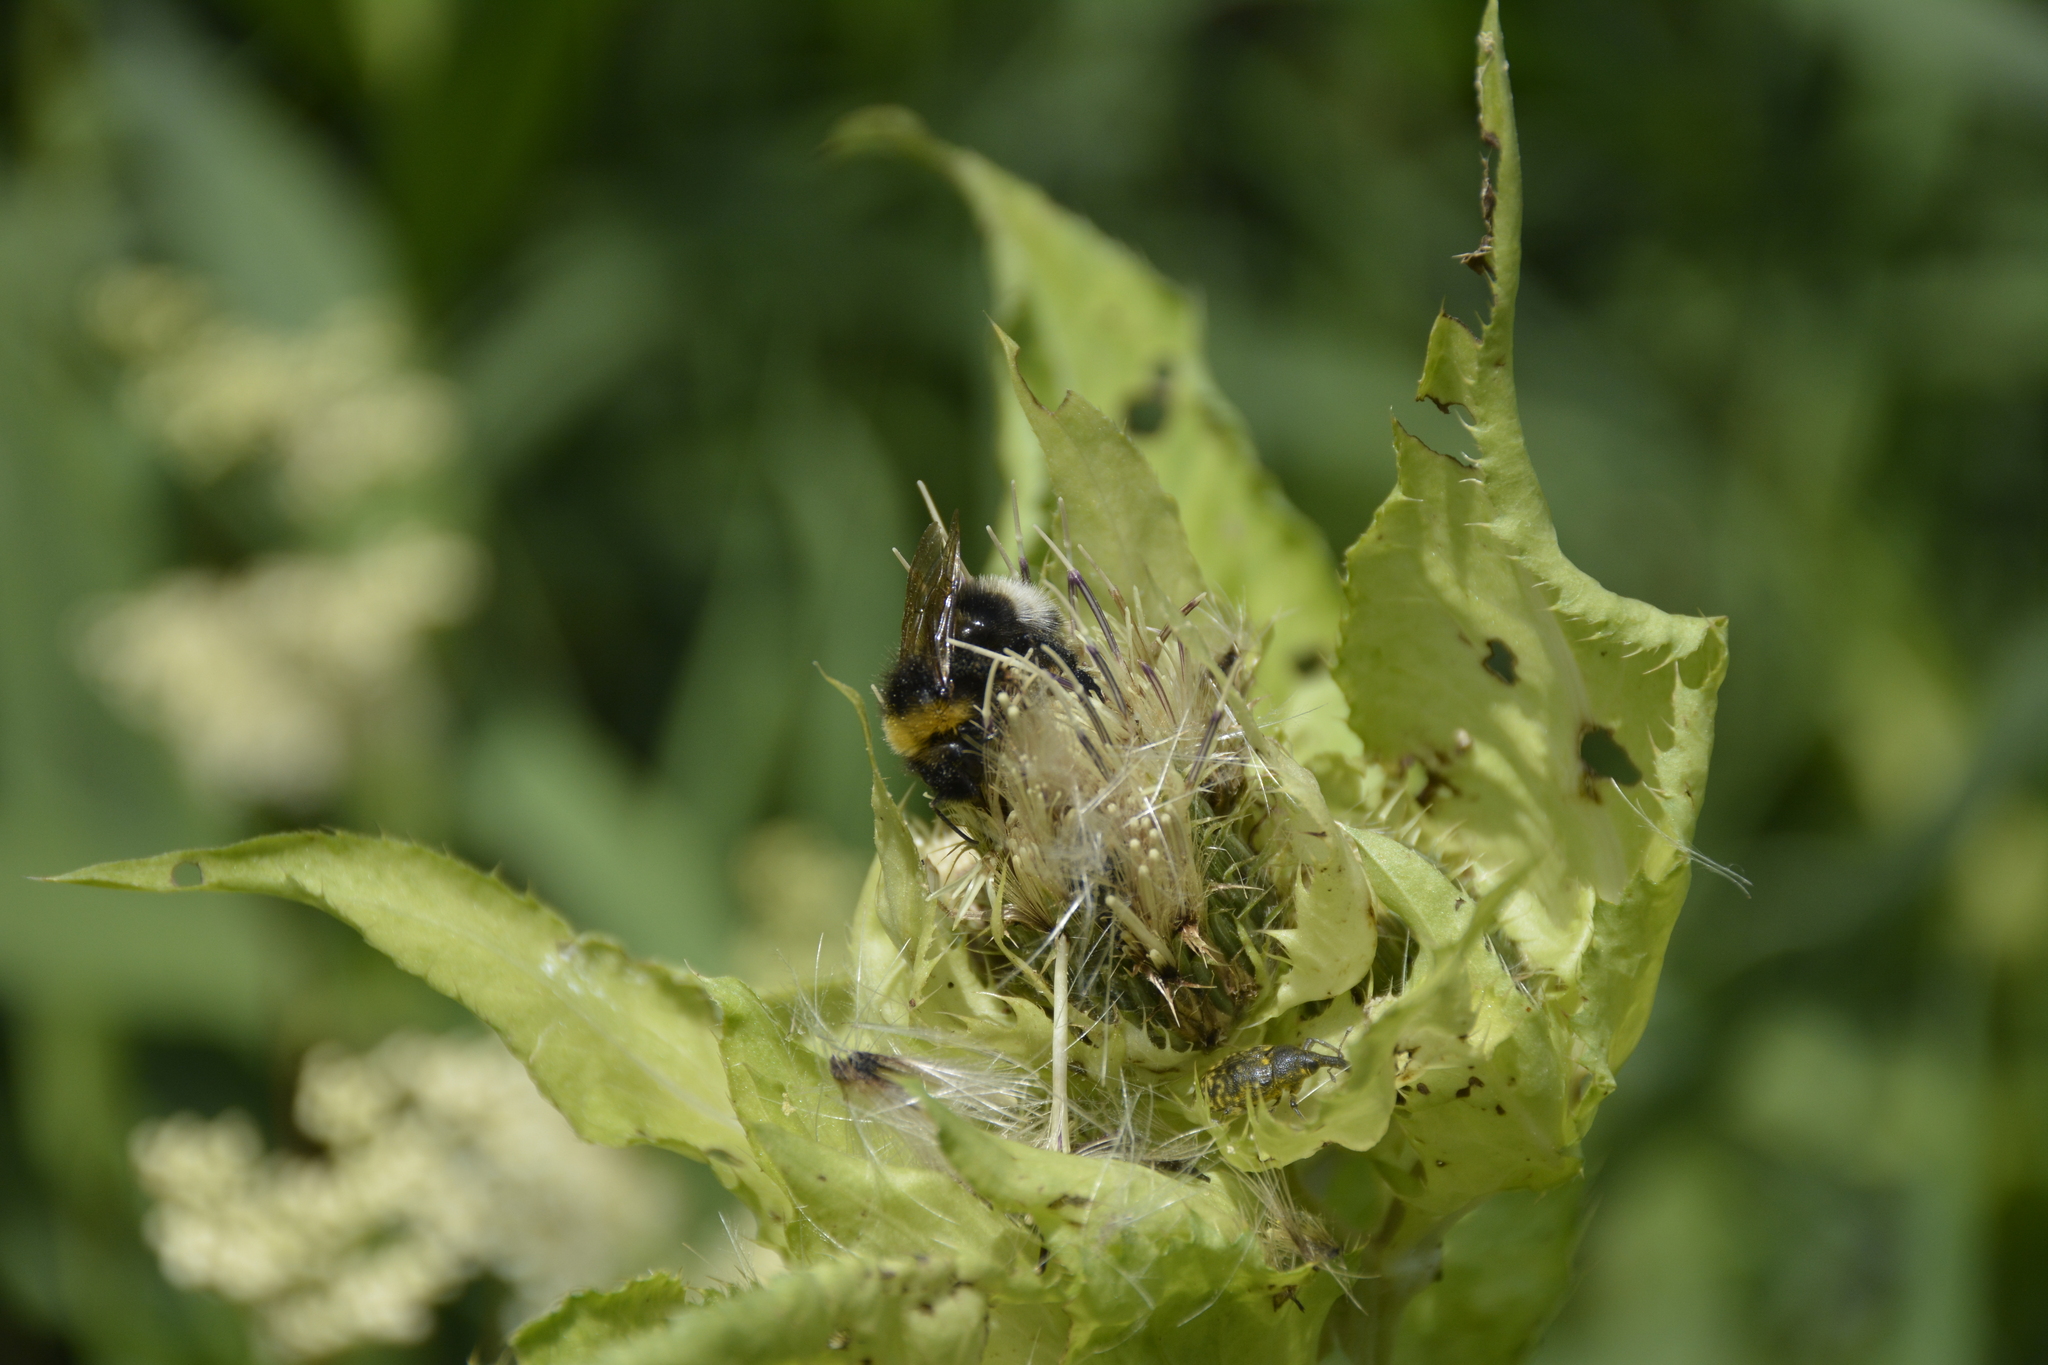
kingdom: Plantae
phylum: Tracheophyta
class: Magnoliopsida
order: Asterales
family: Asteraceae
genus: Cirsium
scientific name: Cirsium oleraceum
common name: Cabbage thistle
